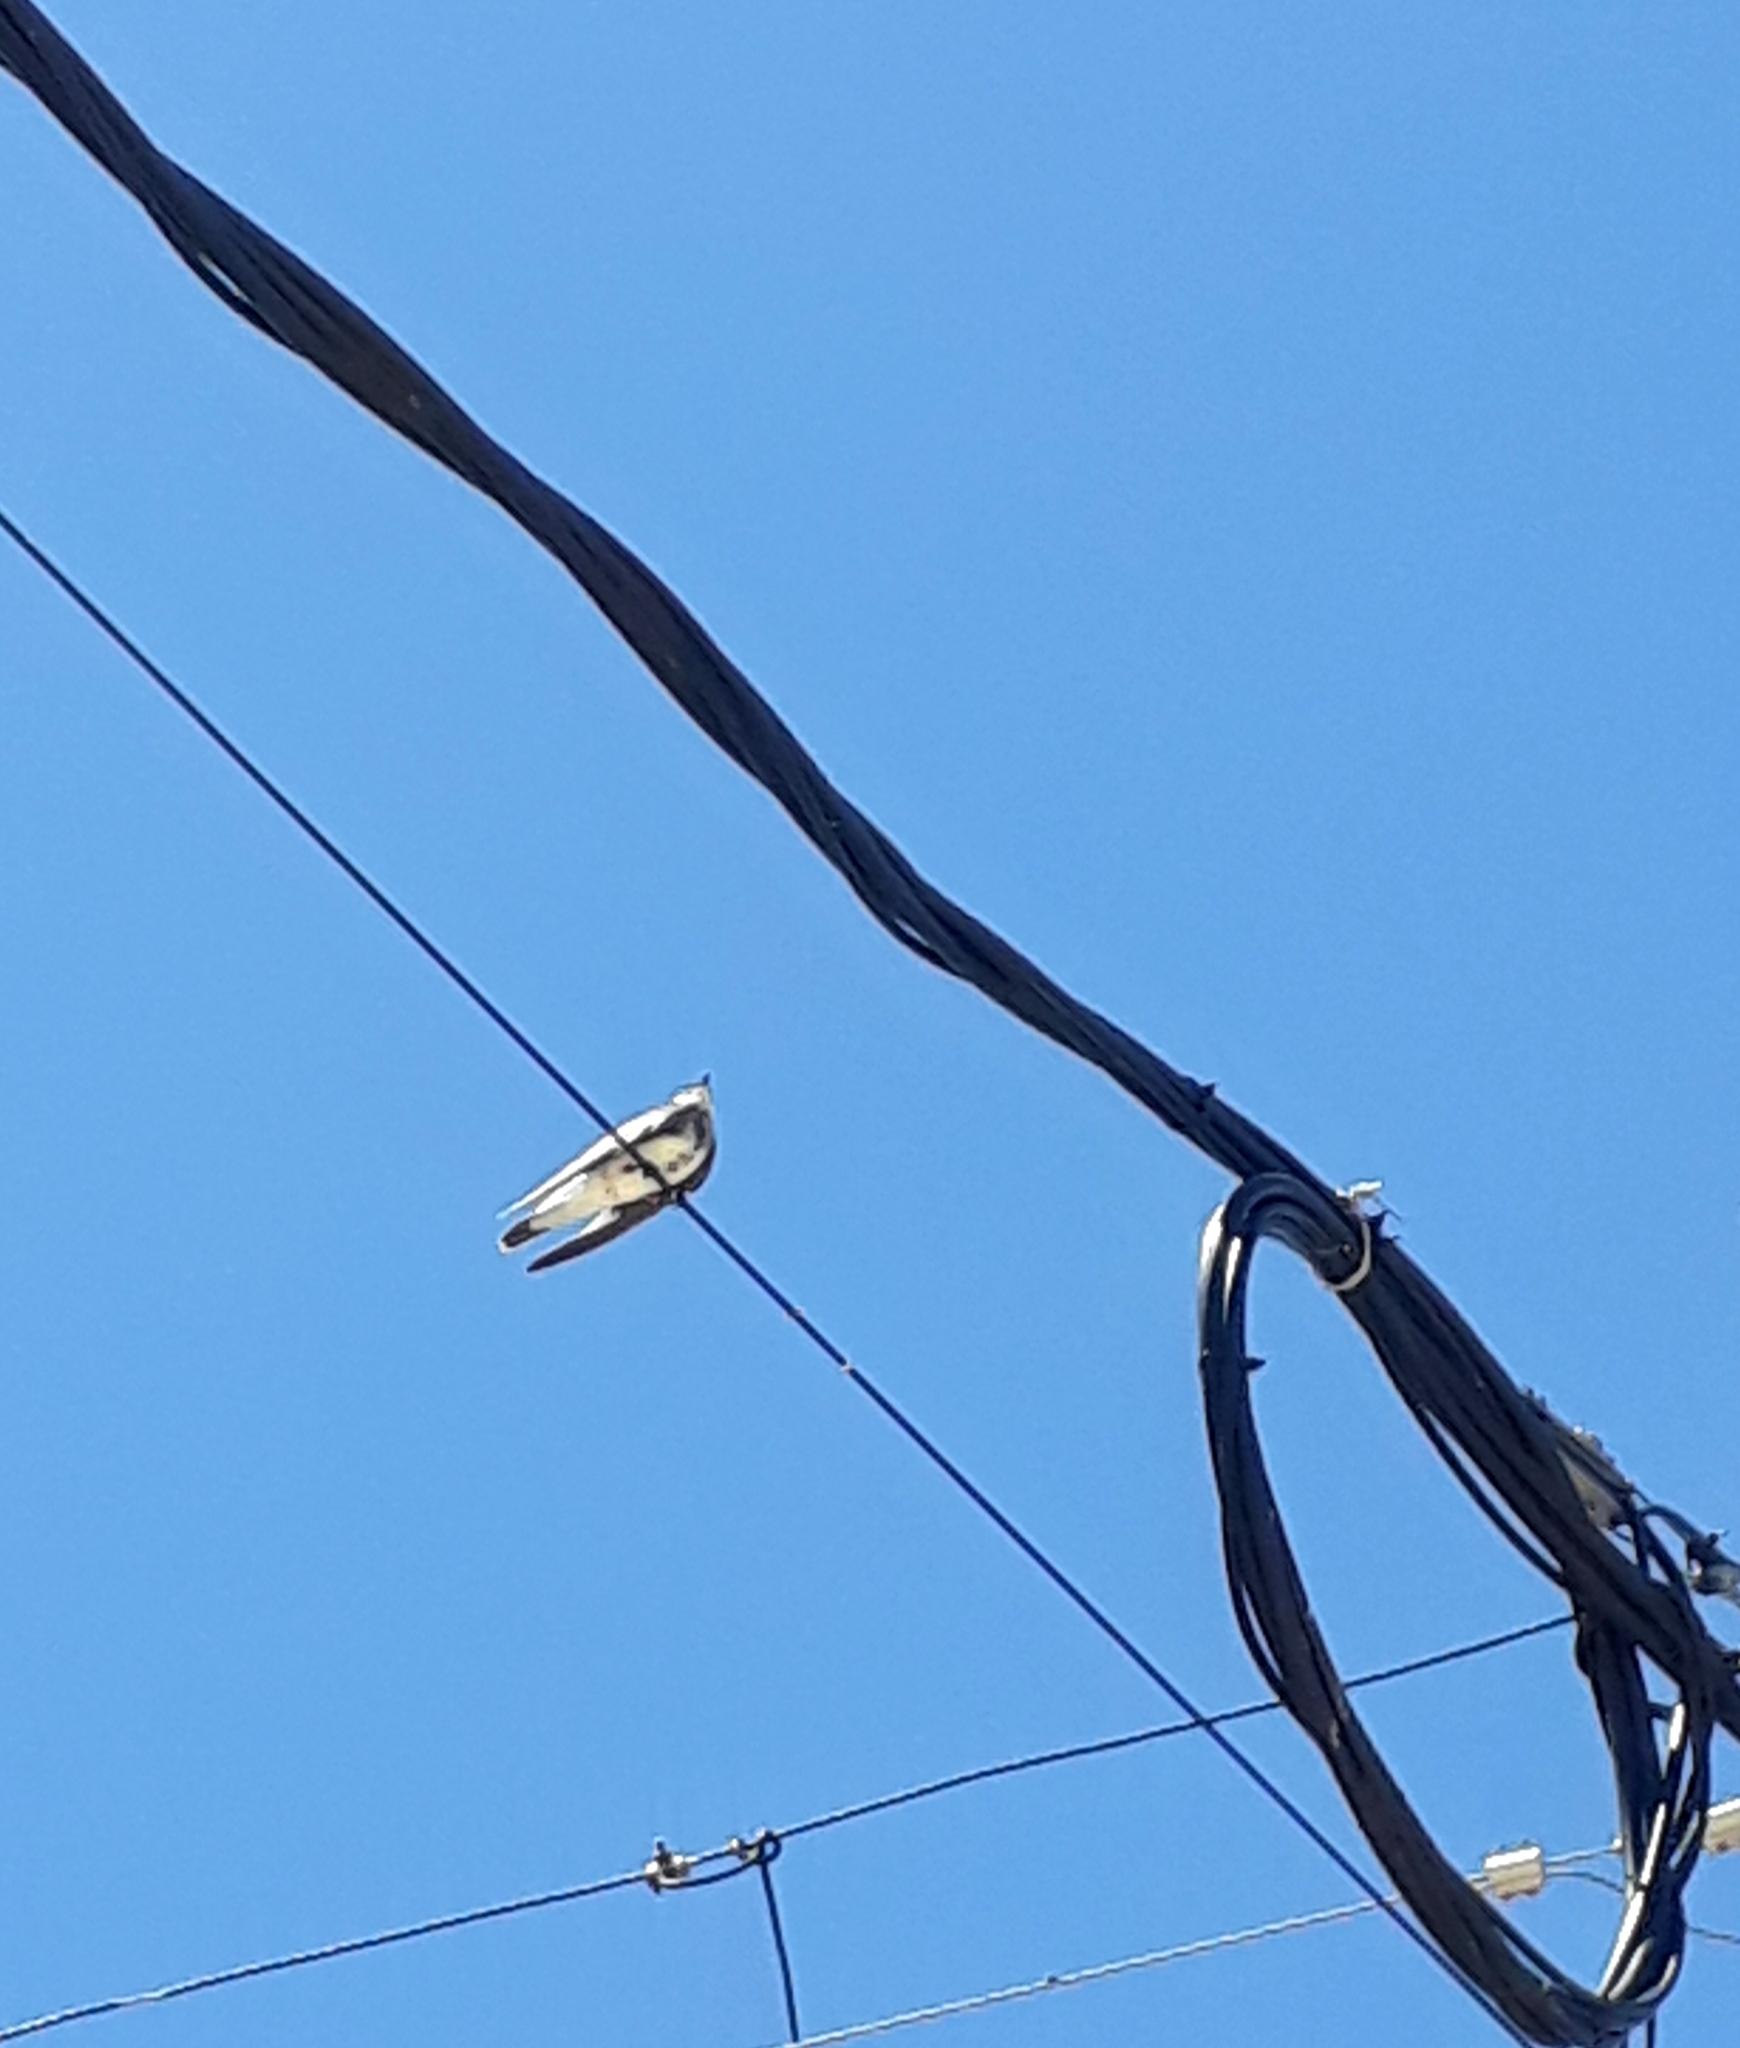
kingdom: Animalia
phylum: Chordata
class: Aves
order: Passeriformes
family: Hirundinidae
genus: Progne
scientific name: Progne tapera
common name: Brown-chested martin
